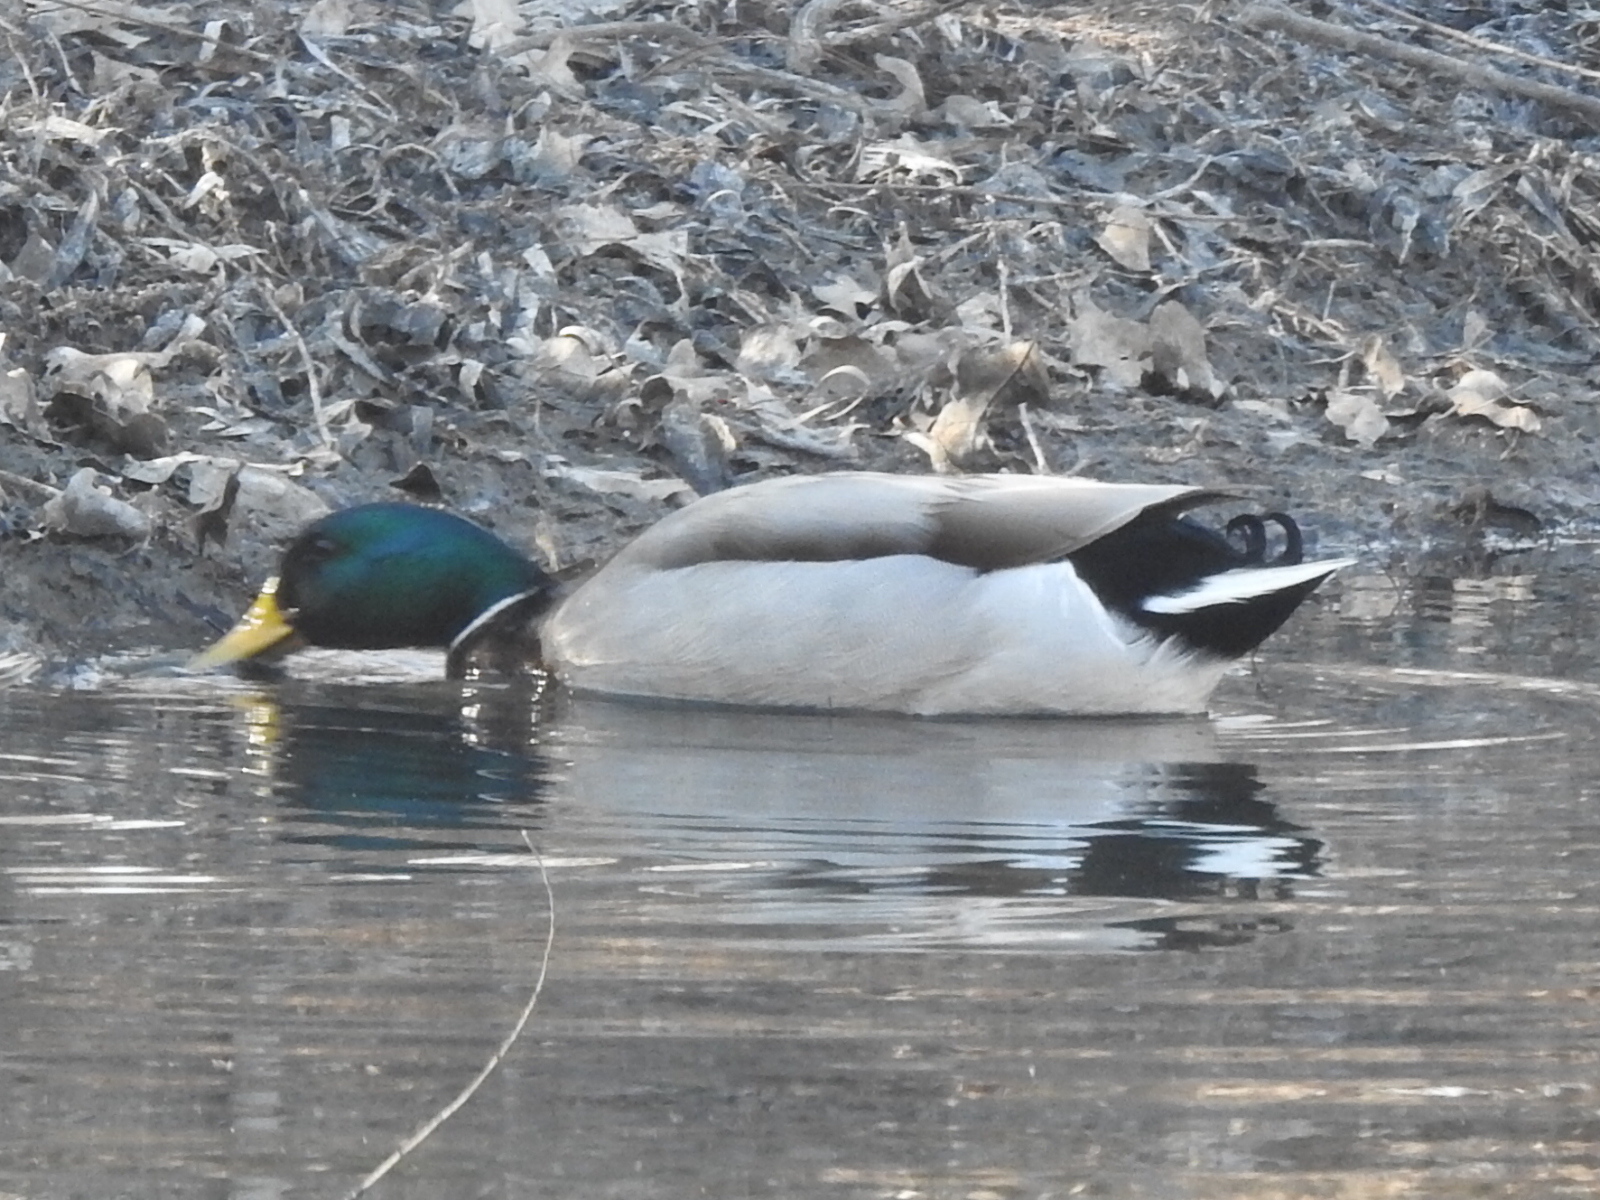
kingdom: Animalia
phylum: Chordata
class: Aves
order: Anseriformes
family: Anatidae
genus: Anas
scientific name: Anas platyrhynchos
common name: Mallard
